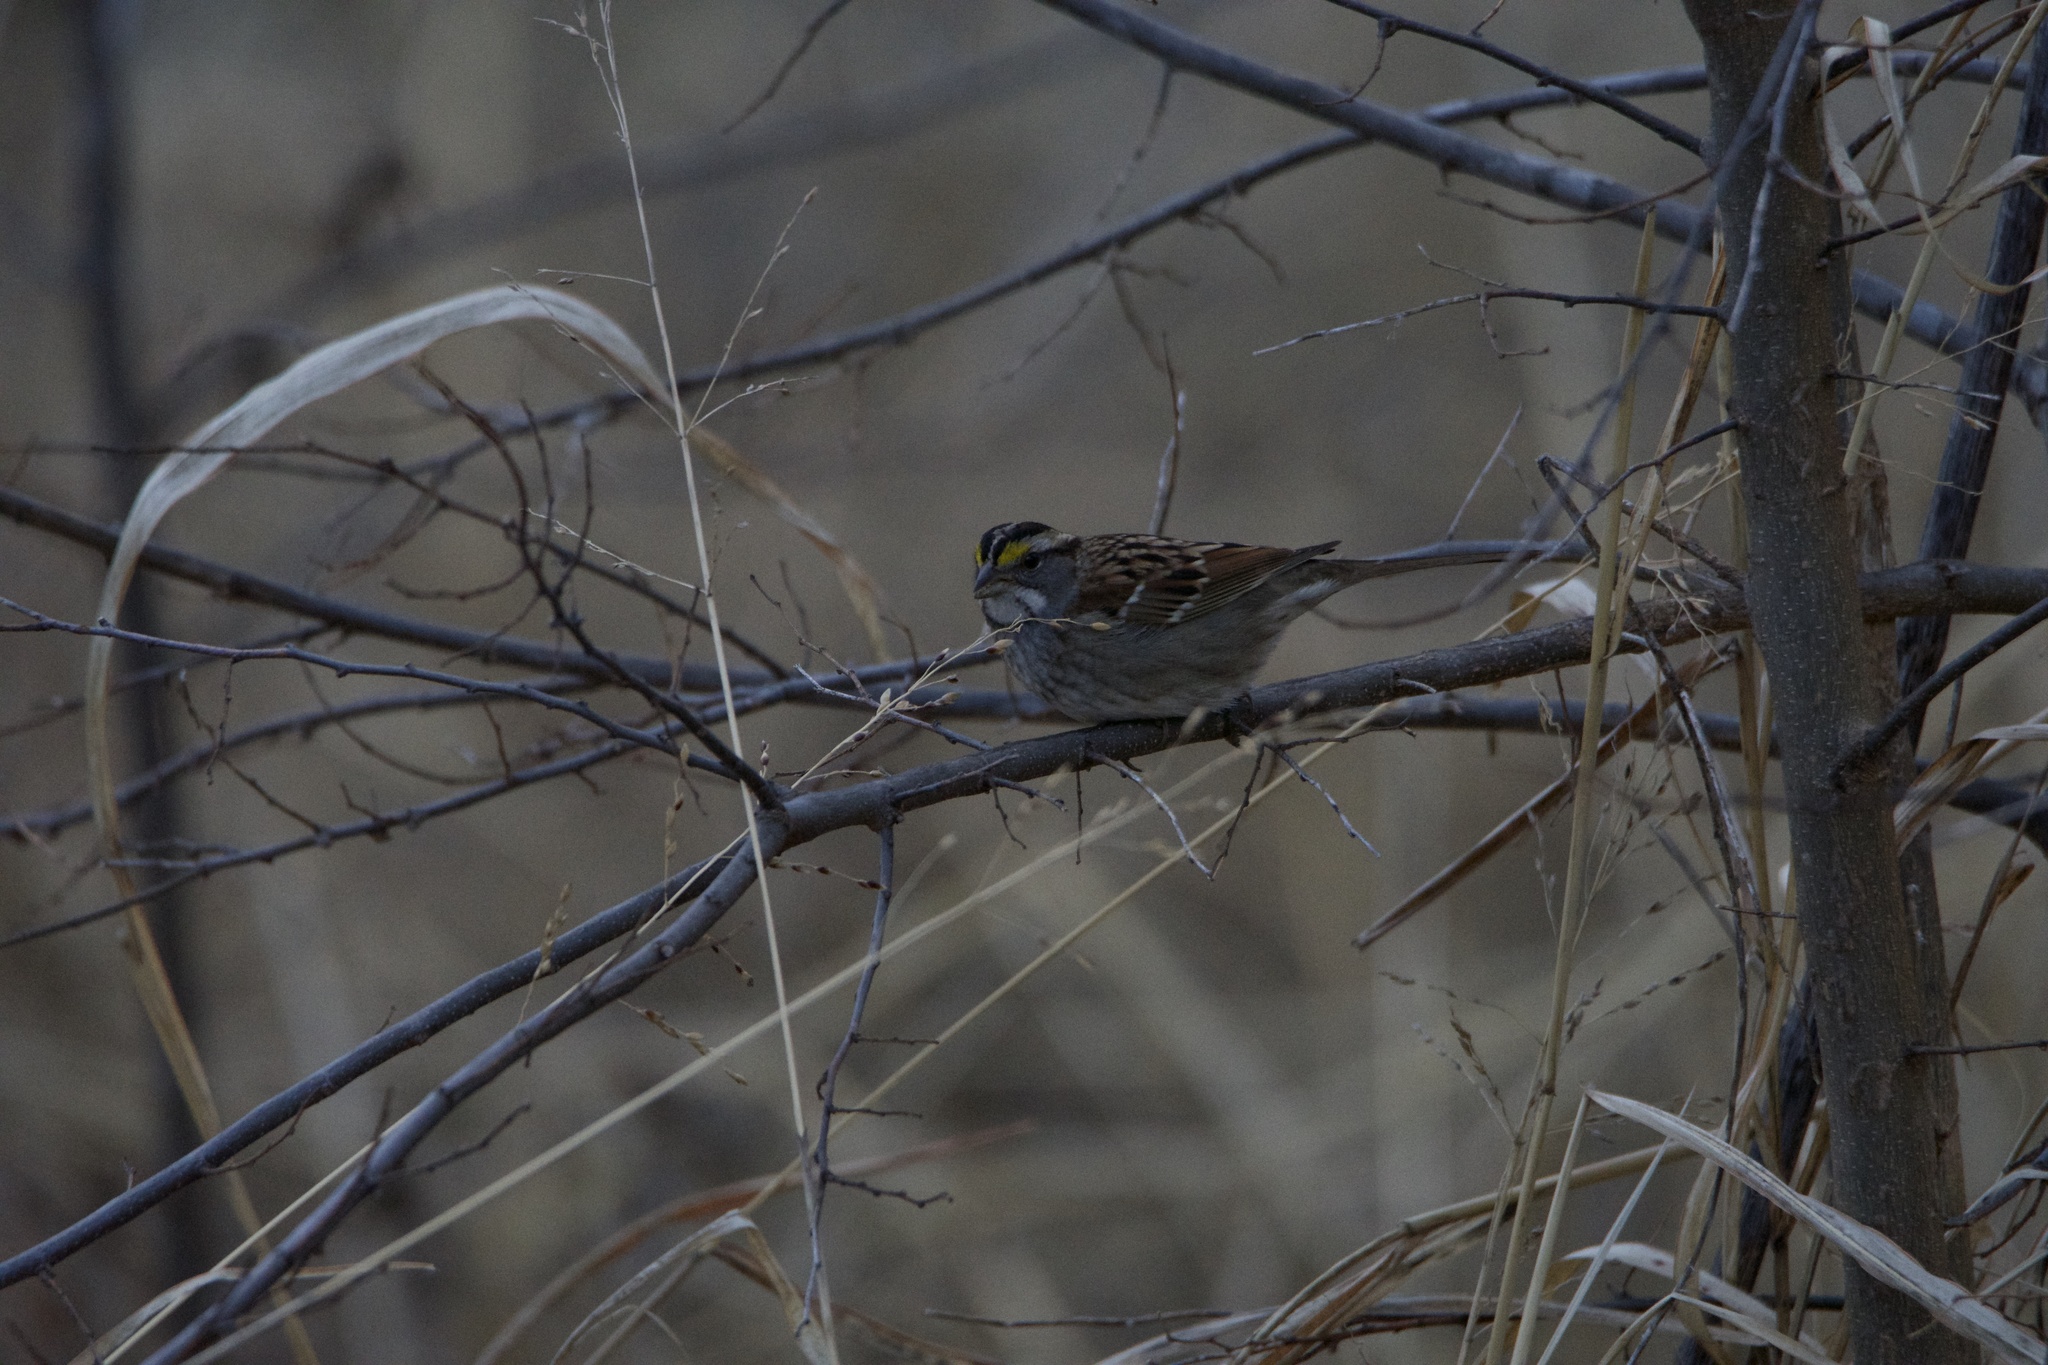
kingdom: Animalia
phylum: Chordata
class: Aves
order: Passeriformes
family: Passerellidae
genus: Zonotrichia
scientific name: Zonotrichia albicollis
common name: White-throated sparrow
